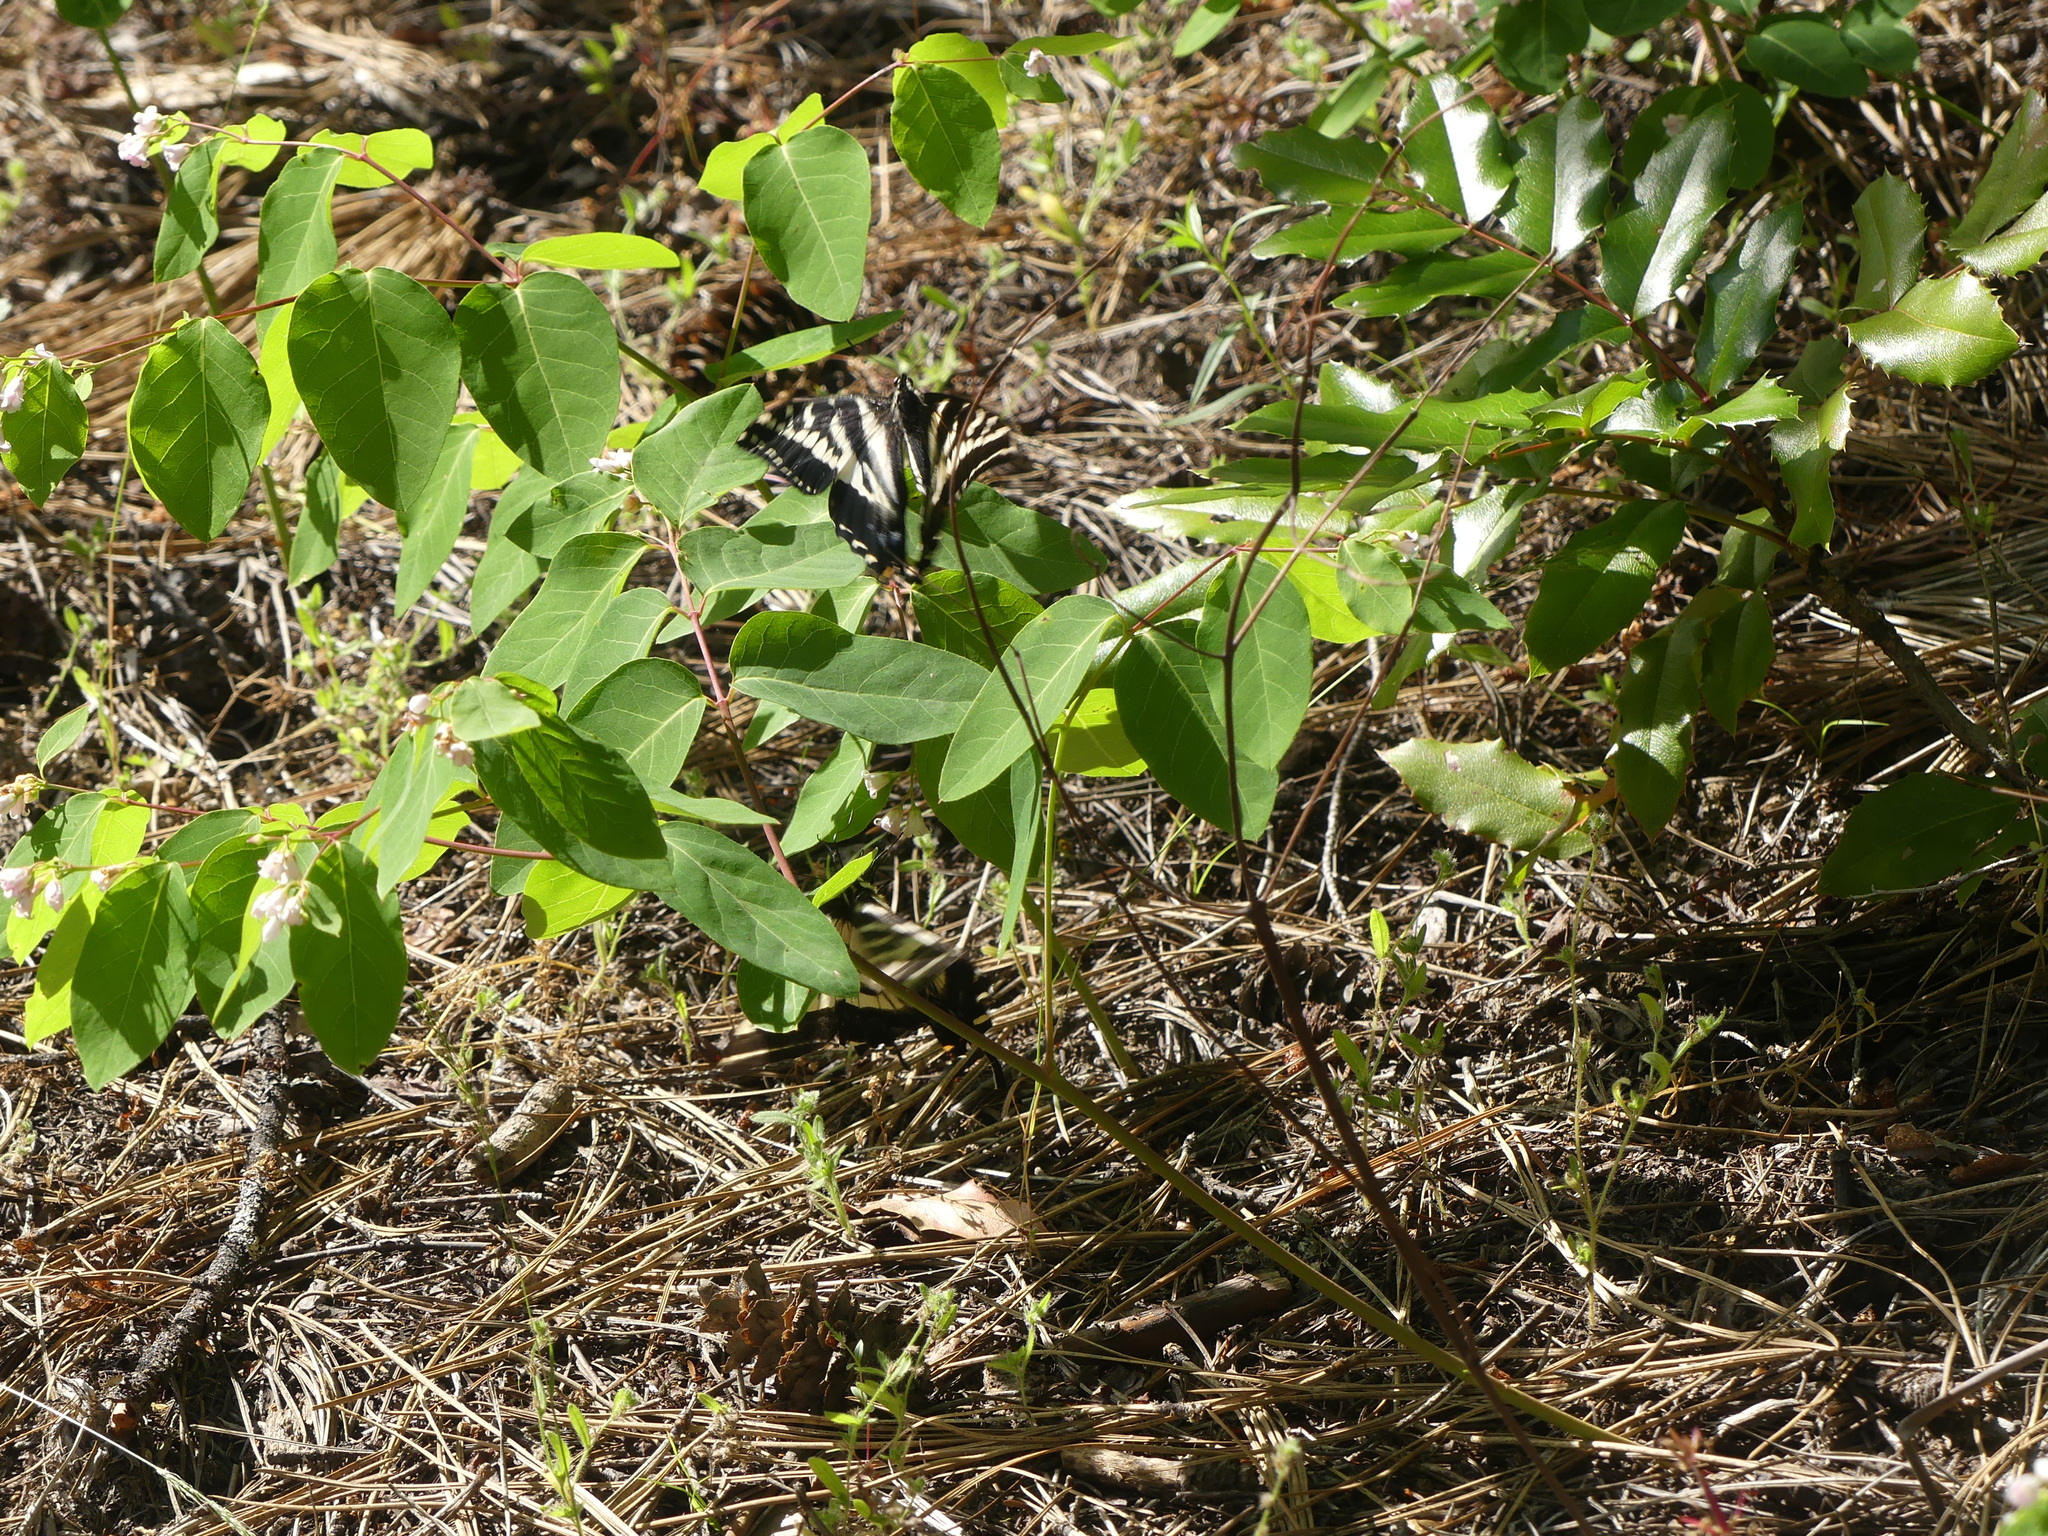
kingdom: Animalia
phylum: Arthropoda
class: Insecta
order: Lepidoptera
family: Papilionidae
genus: Papilio
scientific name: Papilio eurymedon
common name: Pale tiger swallowtail
